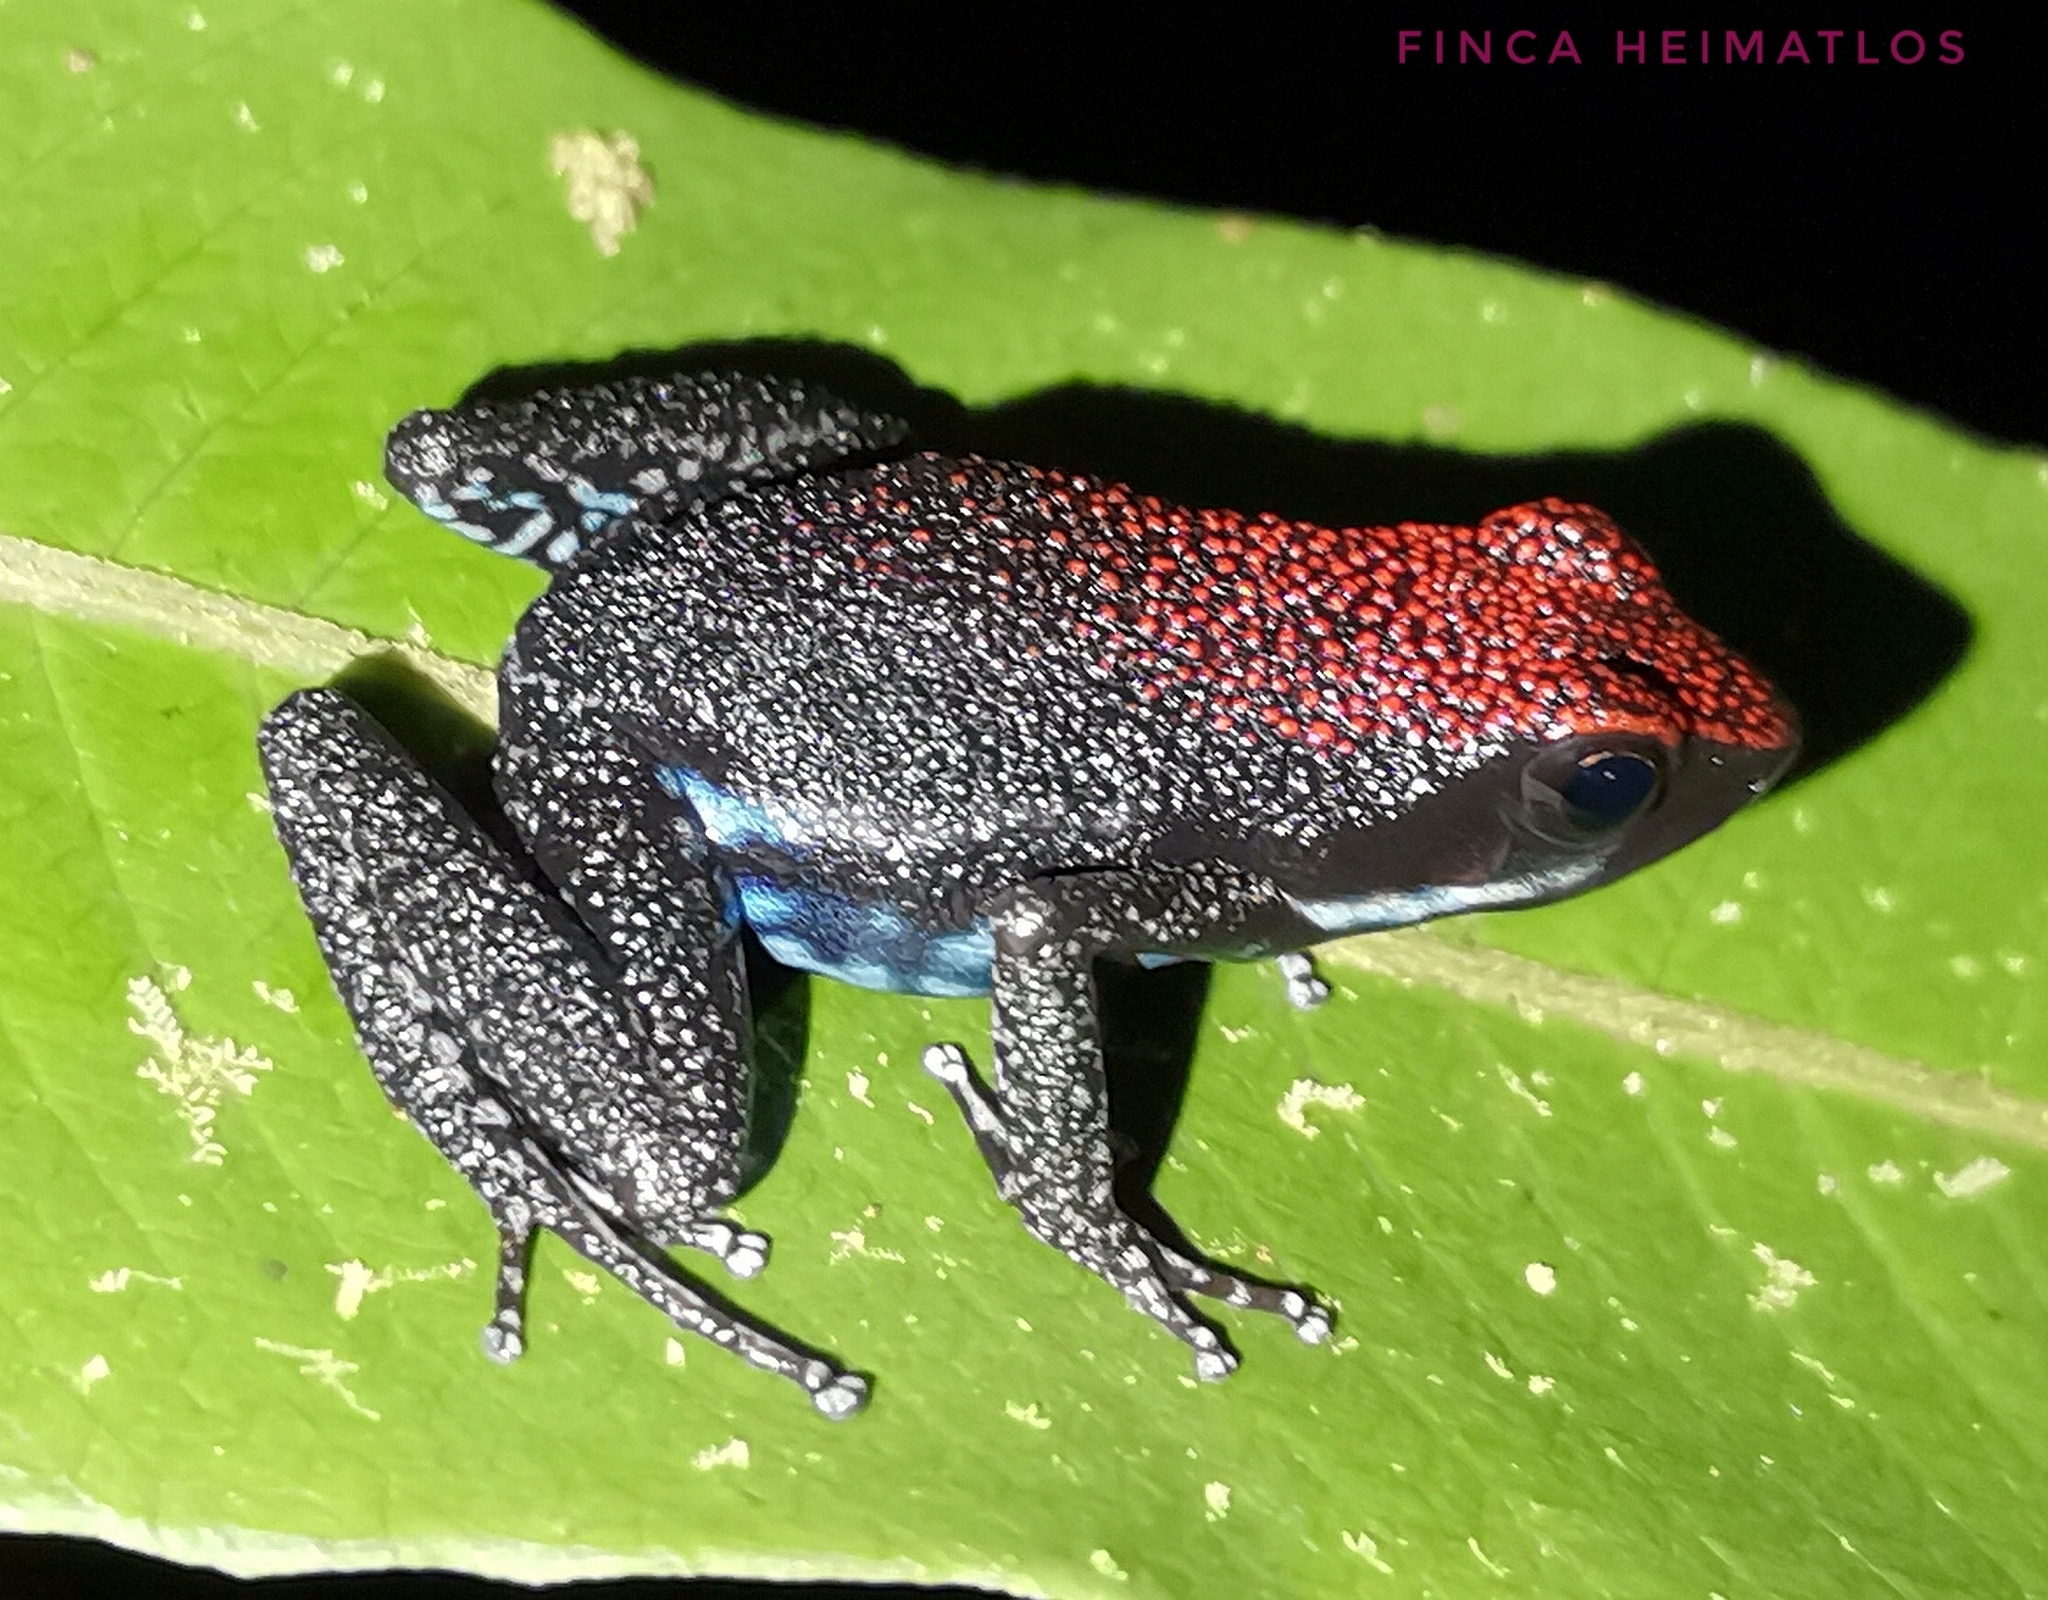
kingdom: Animalia
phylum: Chordata
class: Amphibia
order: Anura
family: Dendrobatidae
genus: Ameerega
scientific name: Ameerega parvula
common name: Ruby poison-arrow frog
